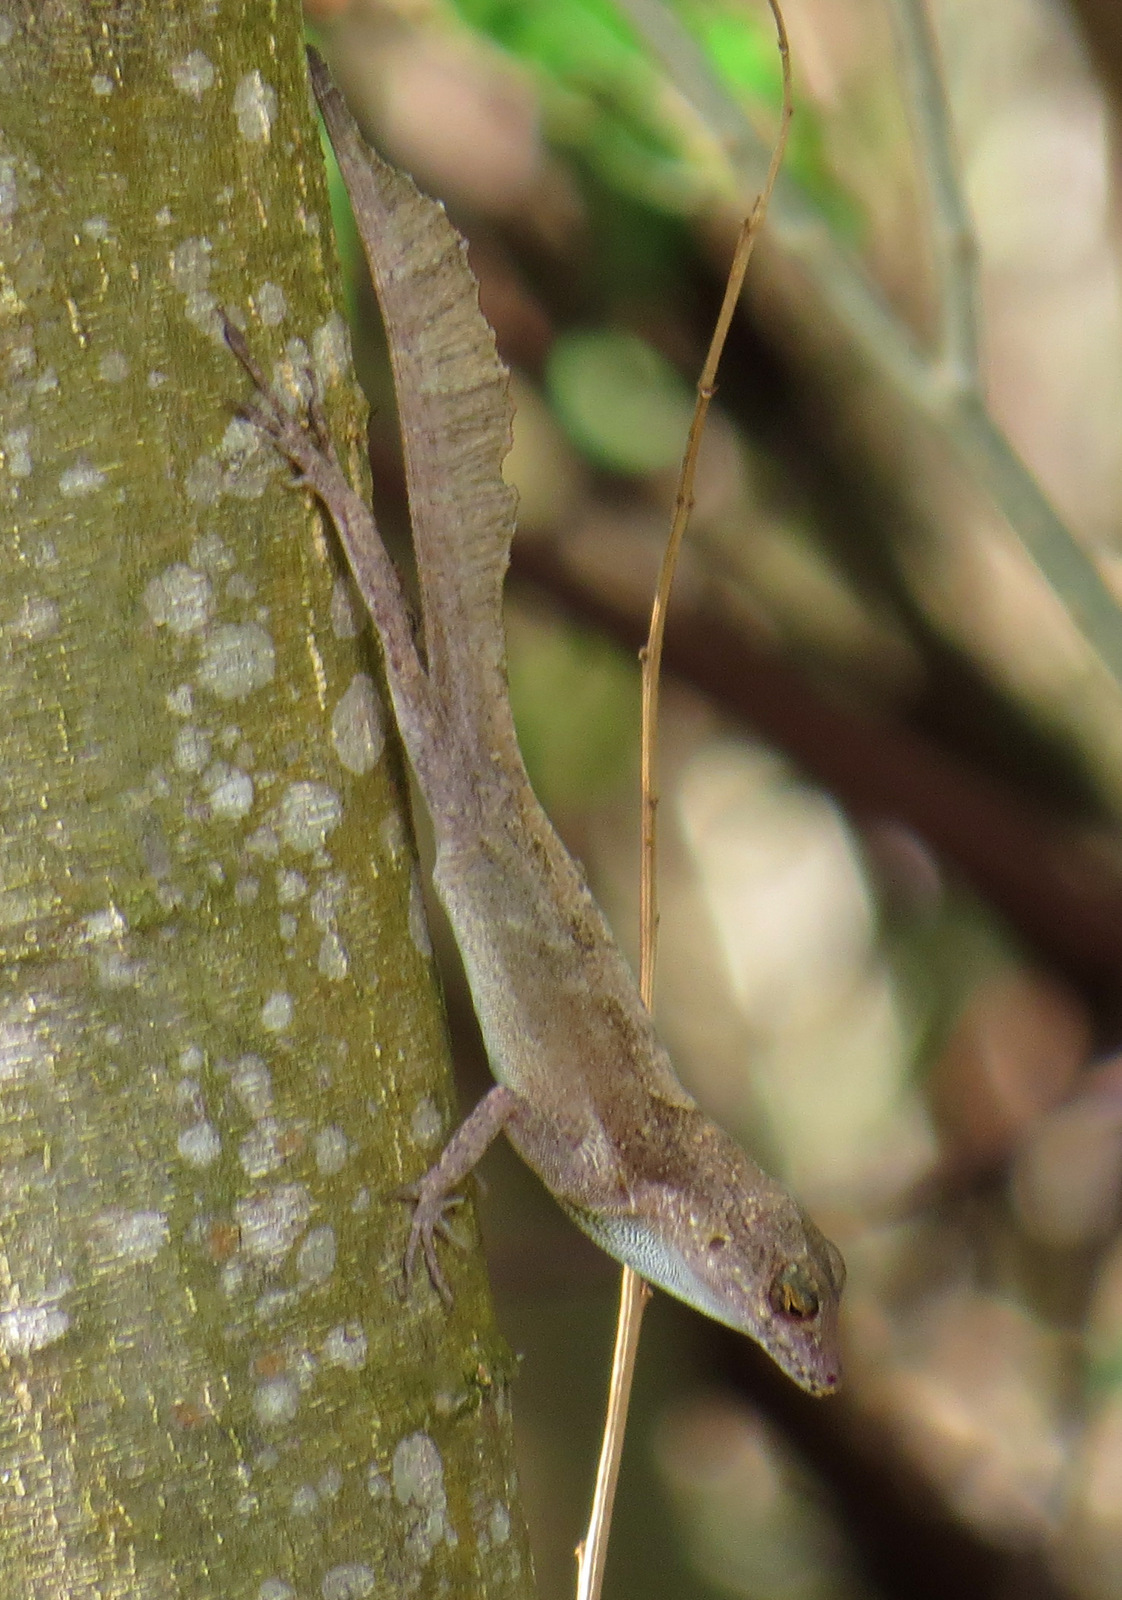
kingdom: Animalia
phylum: Chordata
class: Squamata
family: Dactyloidae
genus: Anolis
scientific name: Anolis cristatellus
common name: Crested anole
